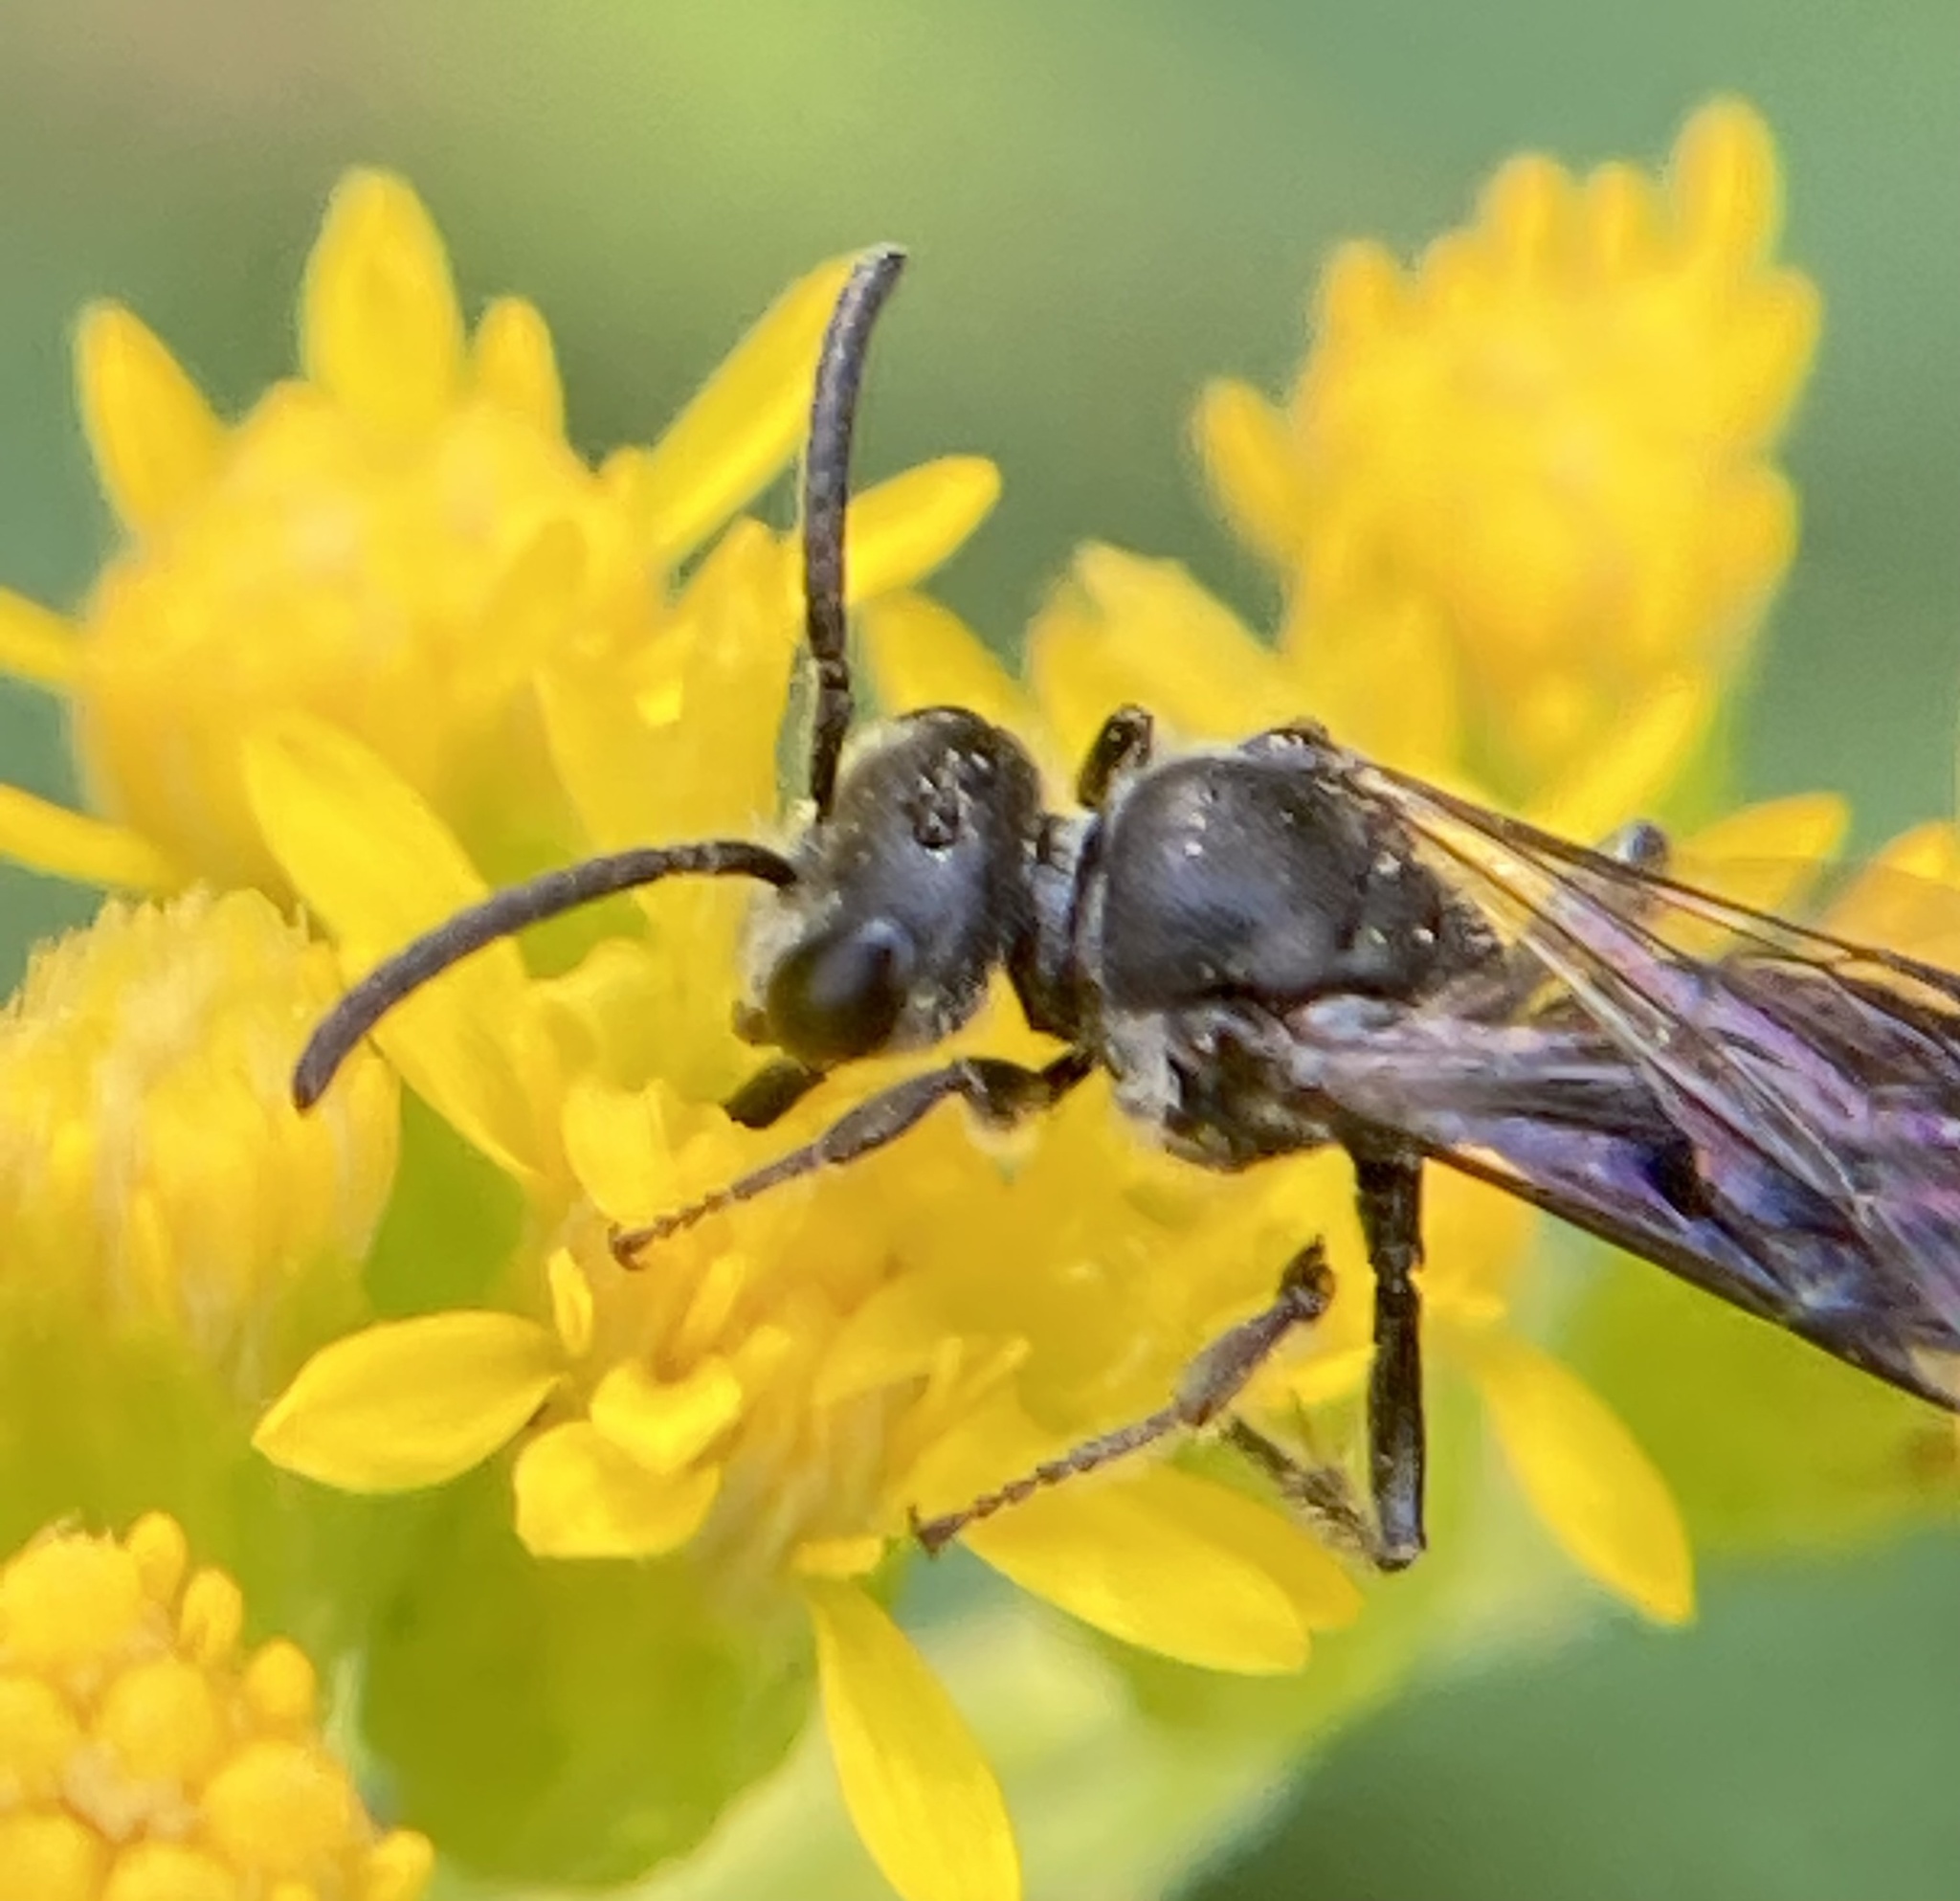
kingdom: Animalia
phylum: Arthropoda
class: Insecta
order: Hymenoptera
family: Halictidae
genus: Sphecodes
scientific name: Sphecodes
